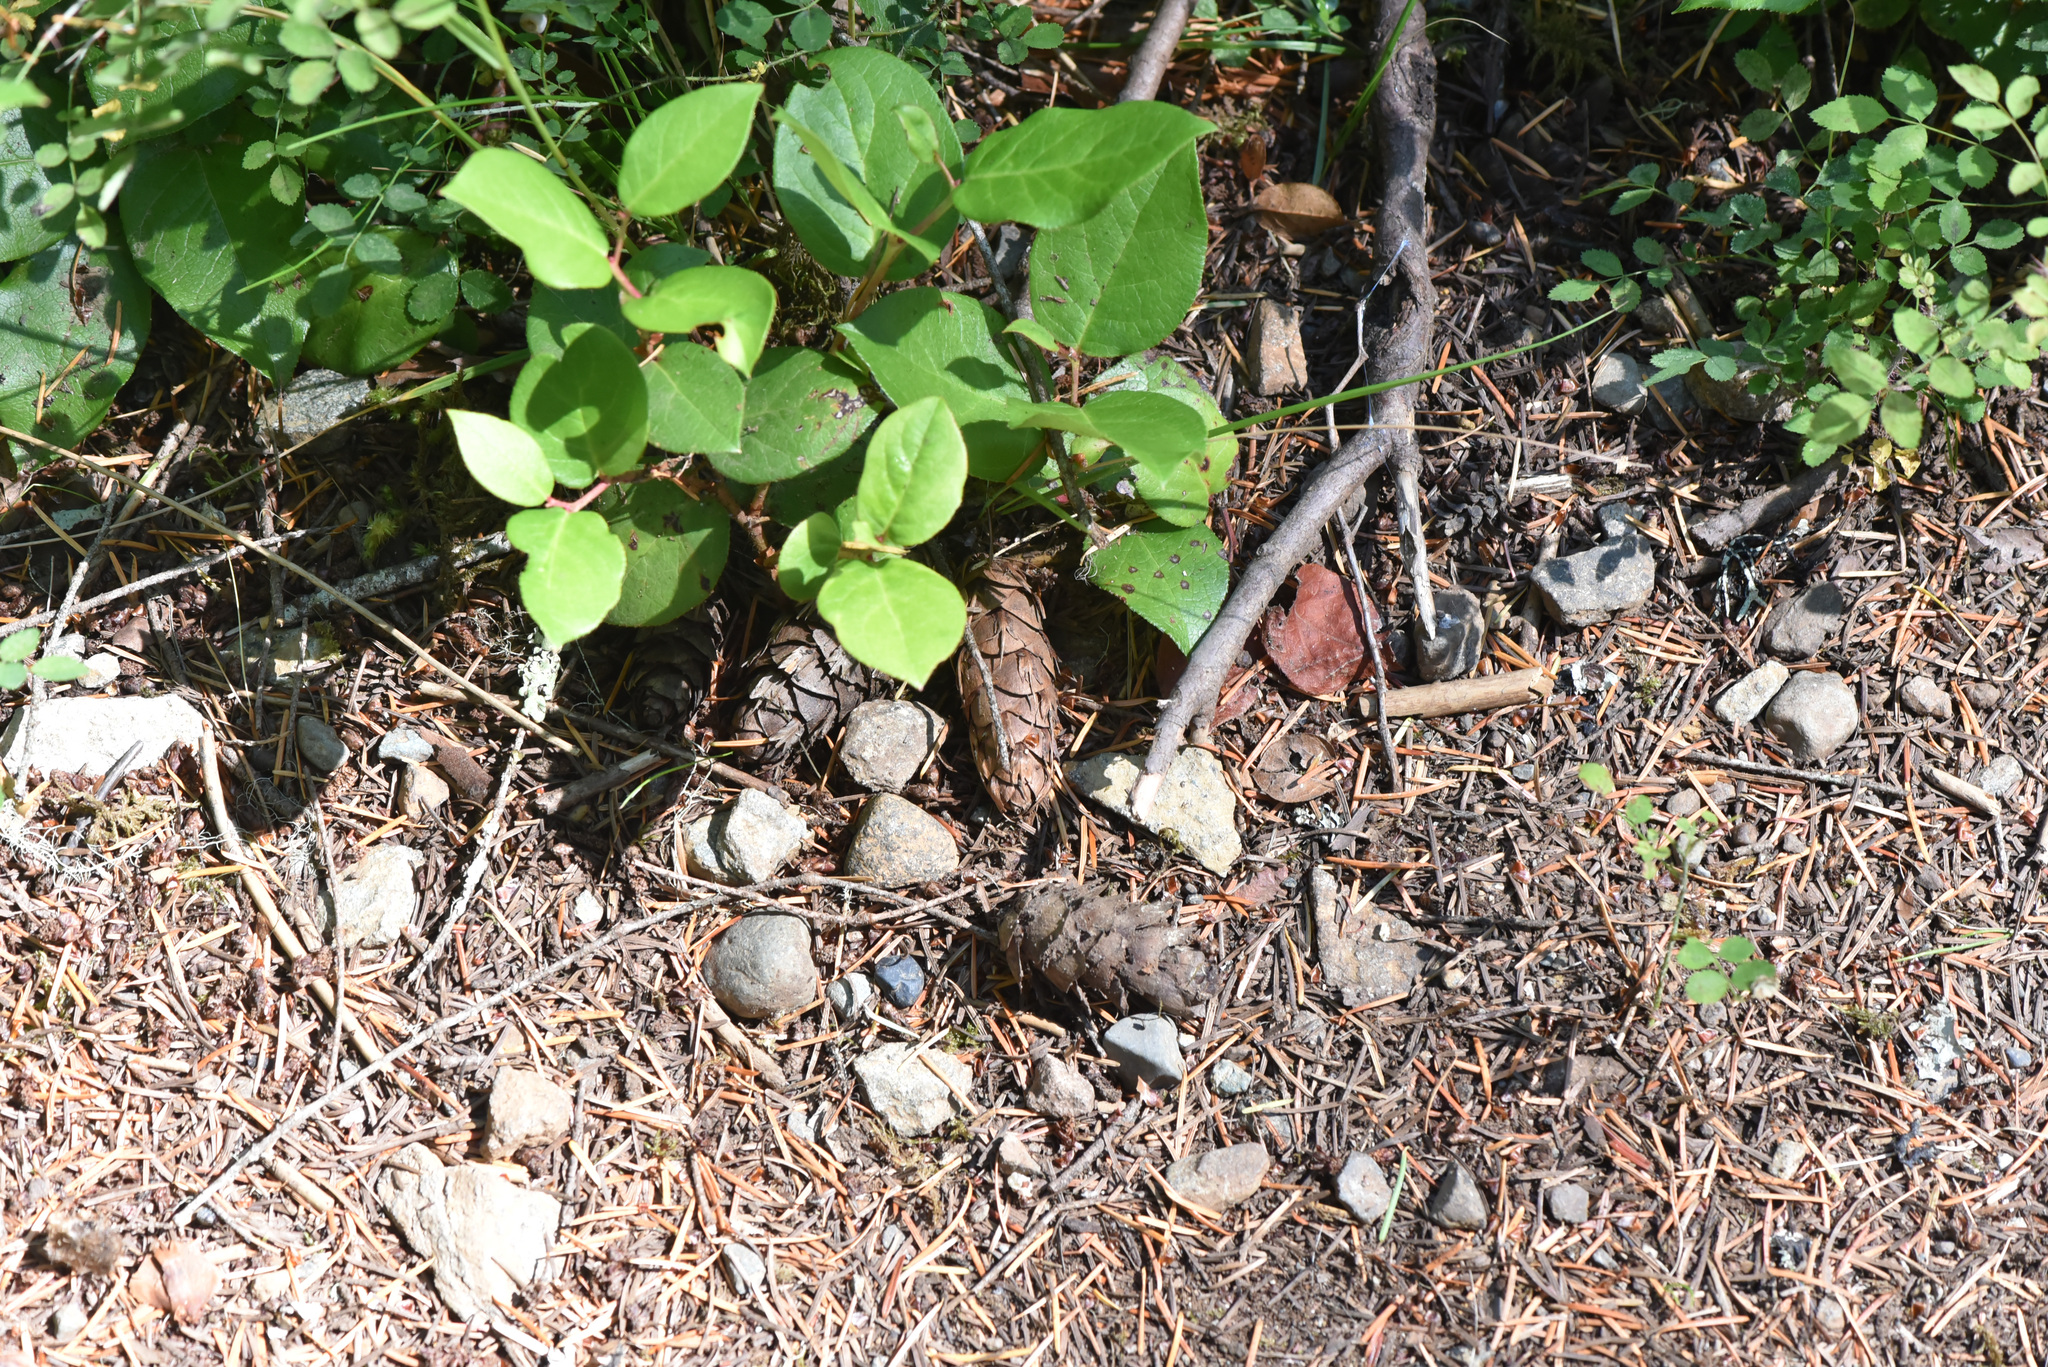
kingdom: Plantae
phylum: Tracheophyta
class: Magnoliopsida
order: Ericales
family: Ericaceae
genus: Gaultheria
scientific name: Gaultheria shallon
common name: Shallon
